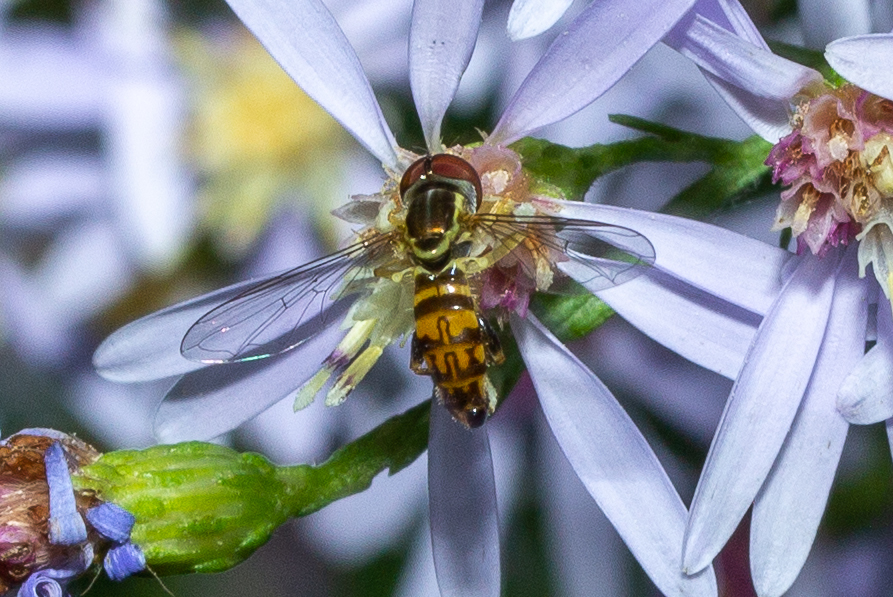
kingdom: Animalia
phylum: Arthropoda
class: Insecta
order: Diptera
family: Syrphidae
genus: Toxomerus
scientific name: Toxomerus geminatus
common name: Eastern calligrapher
